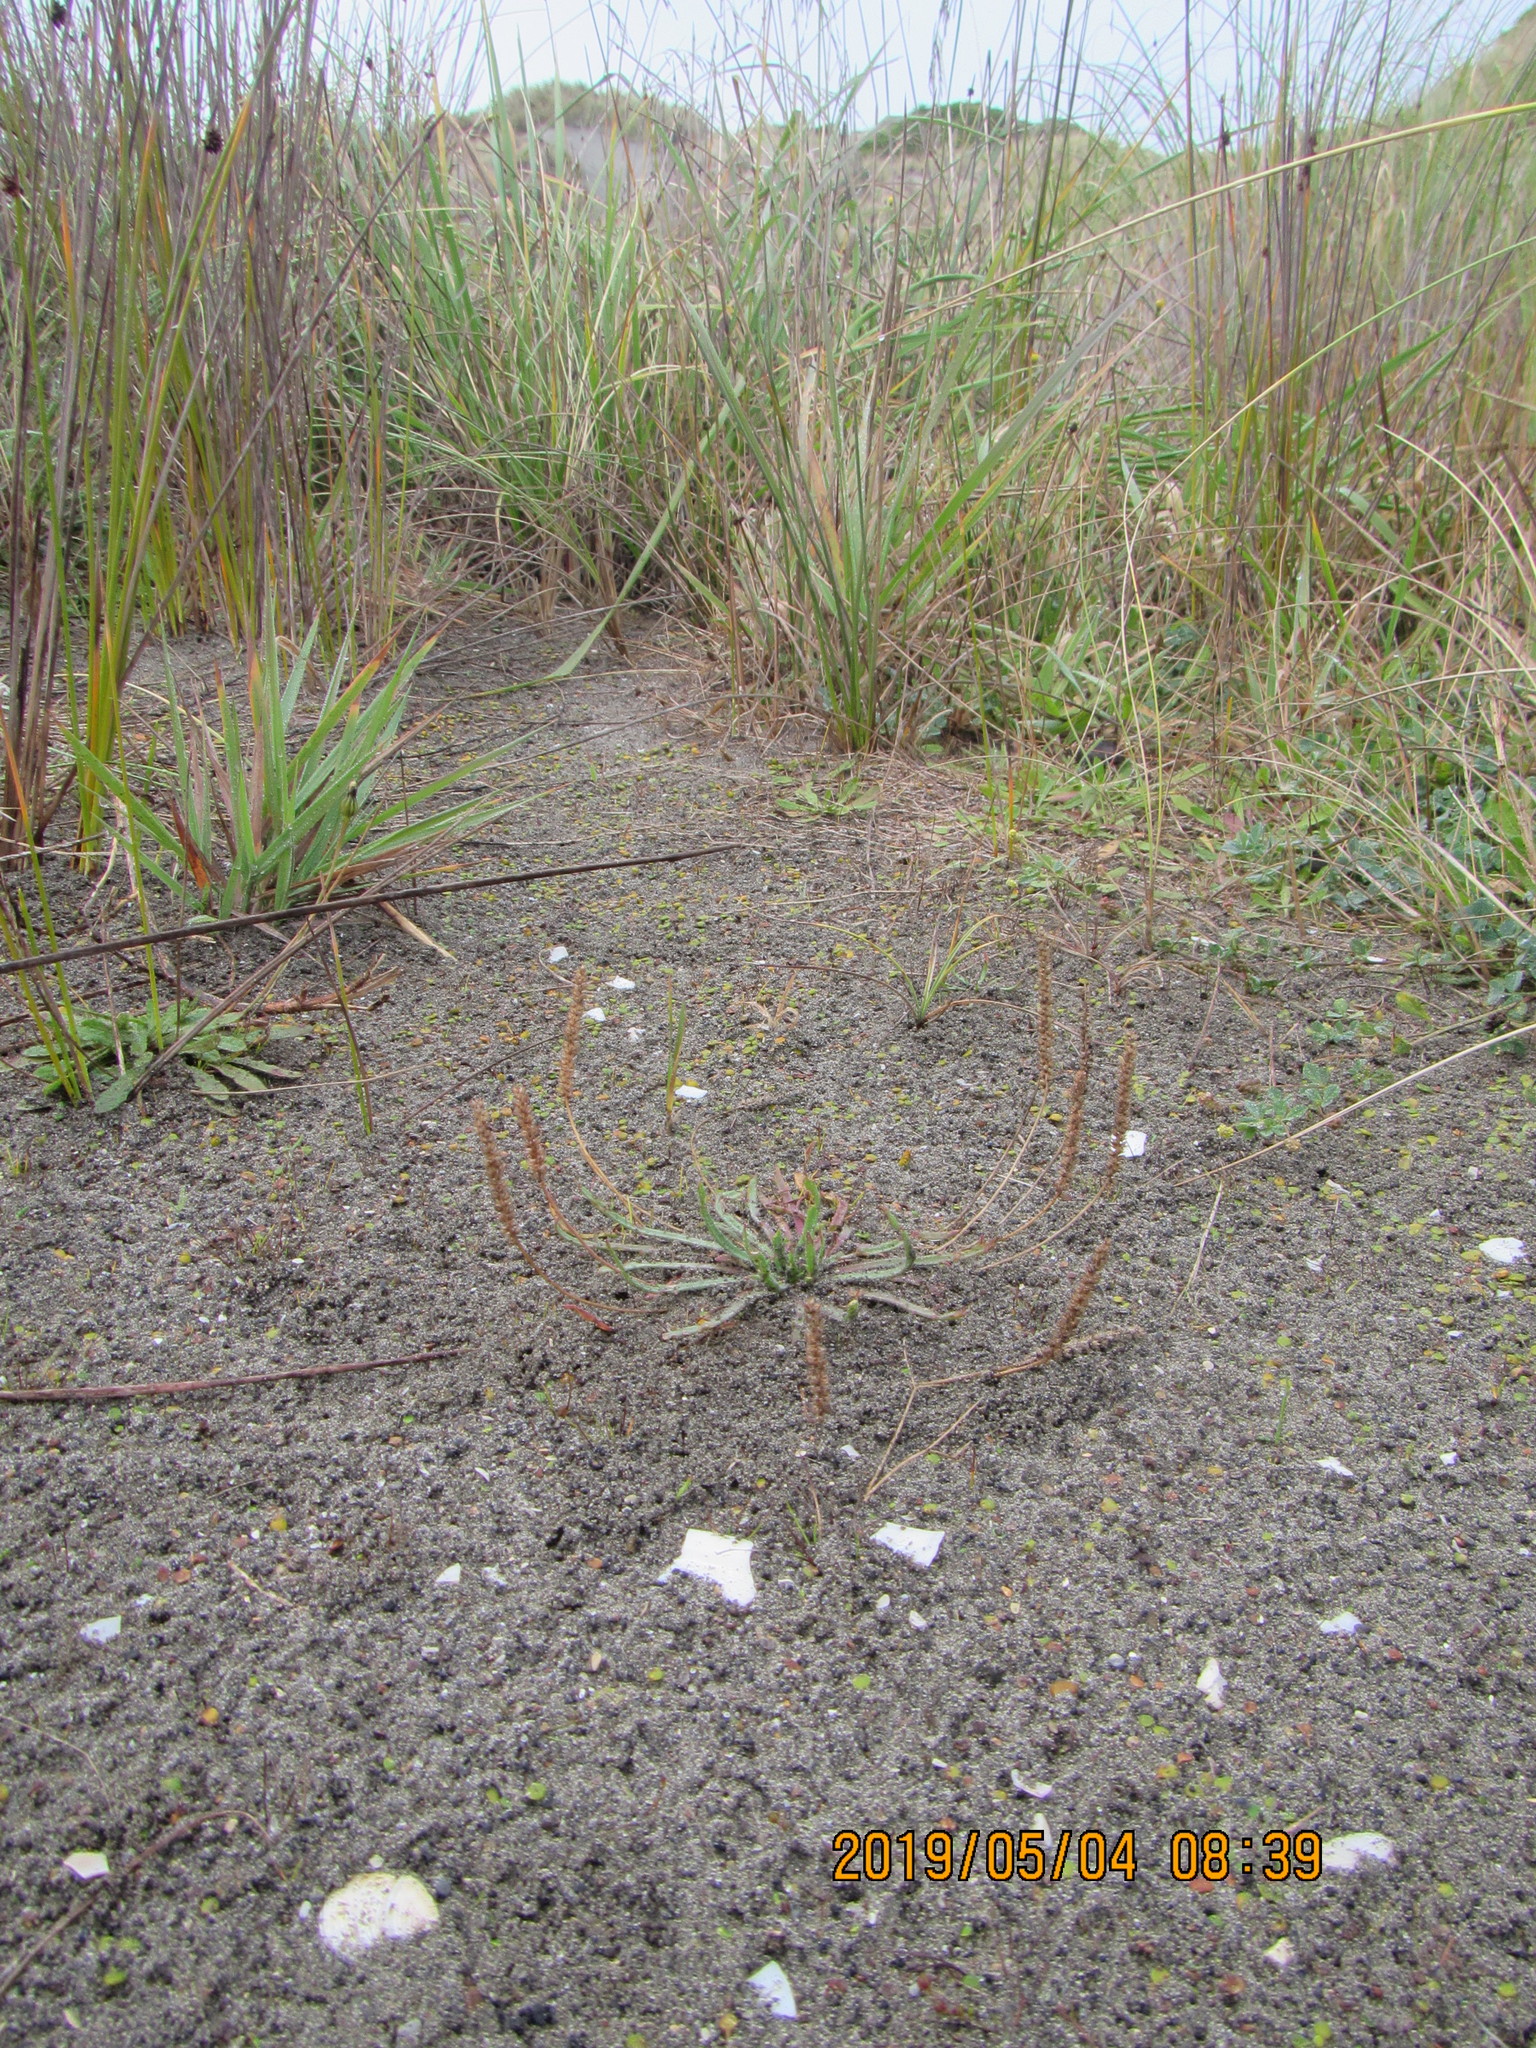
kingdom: Plantae
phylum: Tracheophyta
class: Magnoliopsida
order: Lamiales
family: Plantaginaceae
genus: Plantago
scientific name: Plantago coronopus
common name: Buck's-horn plantain
